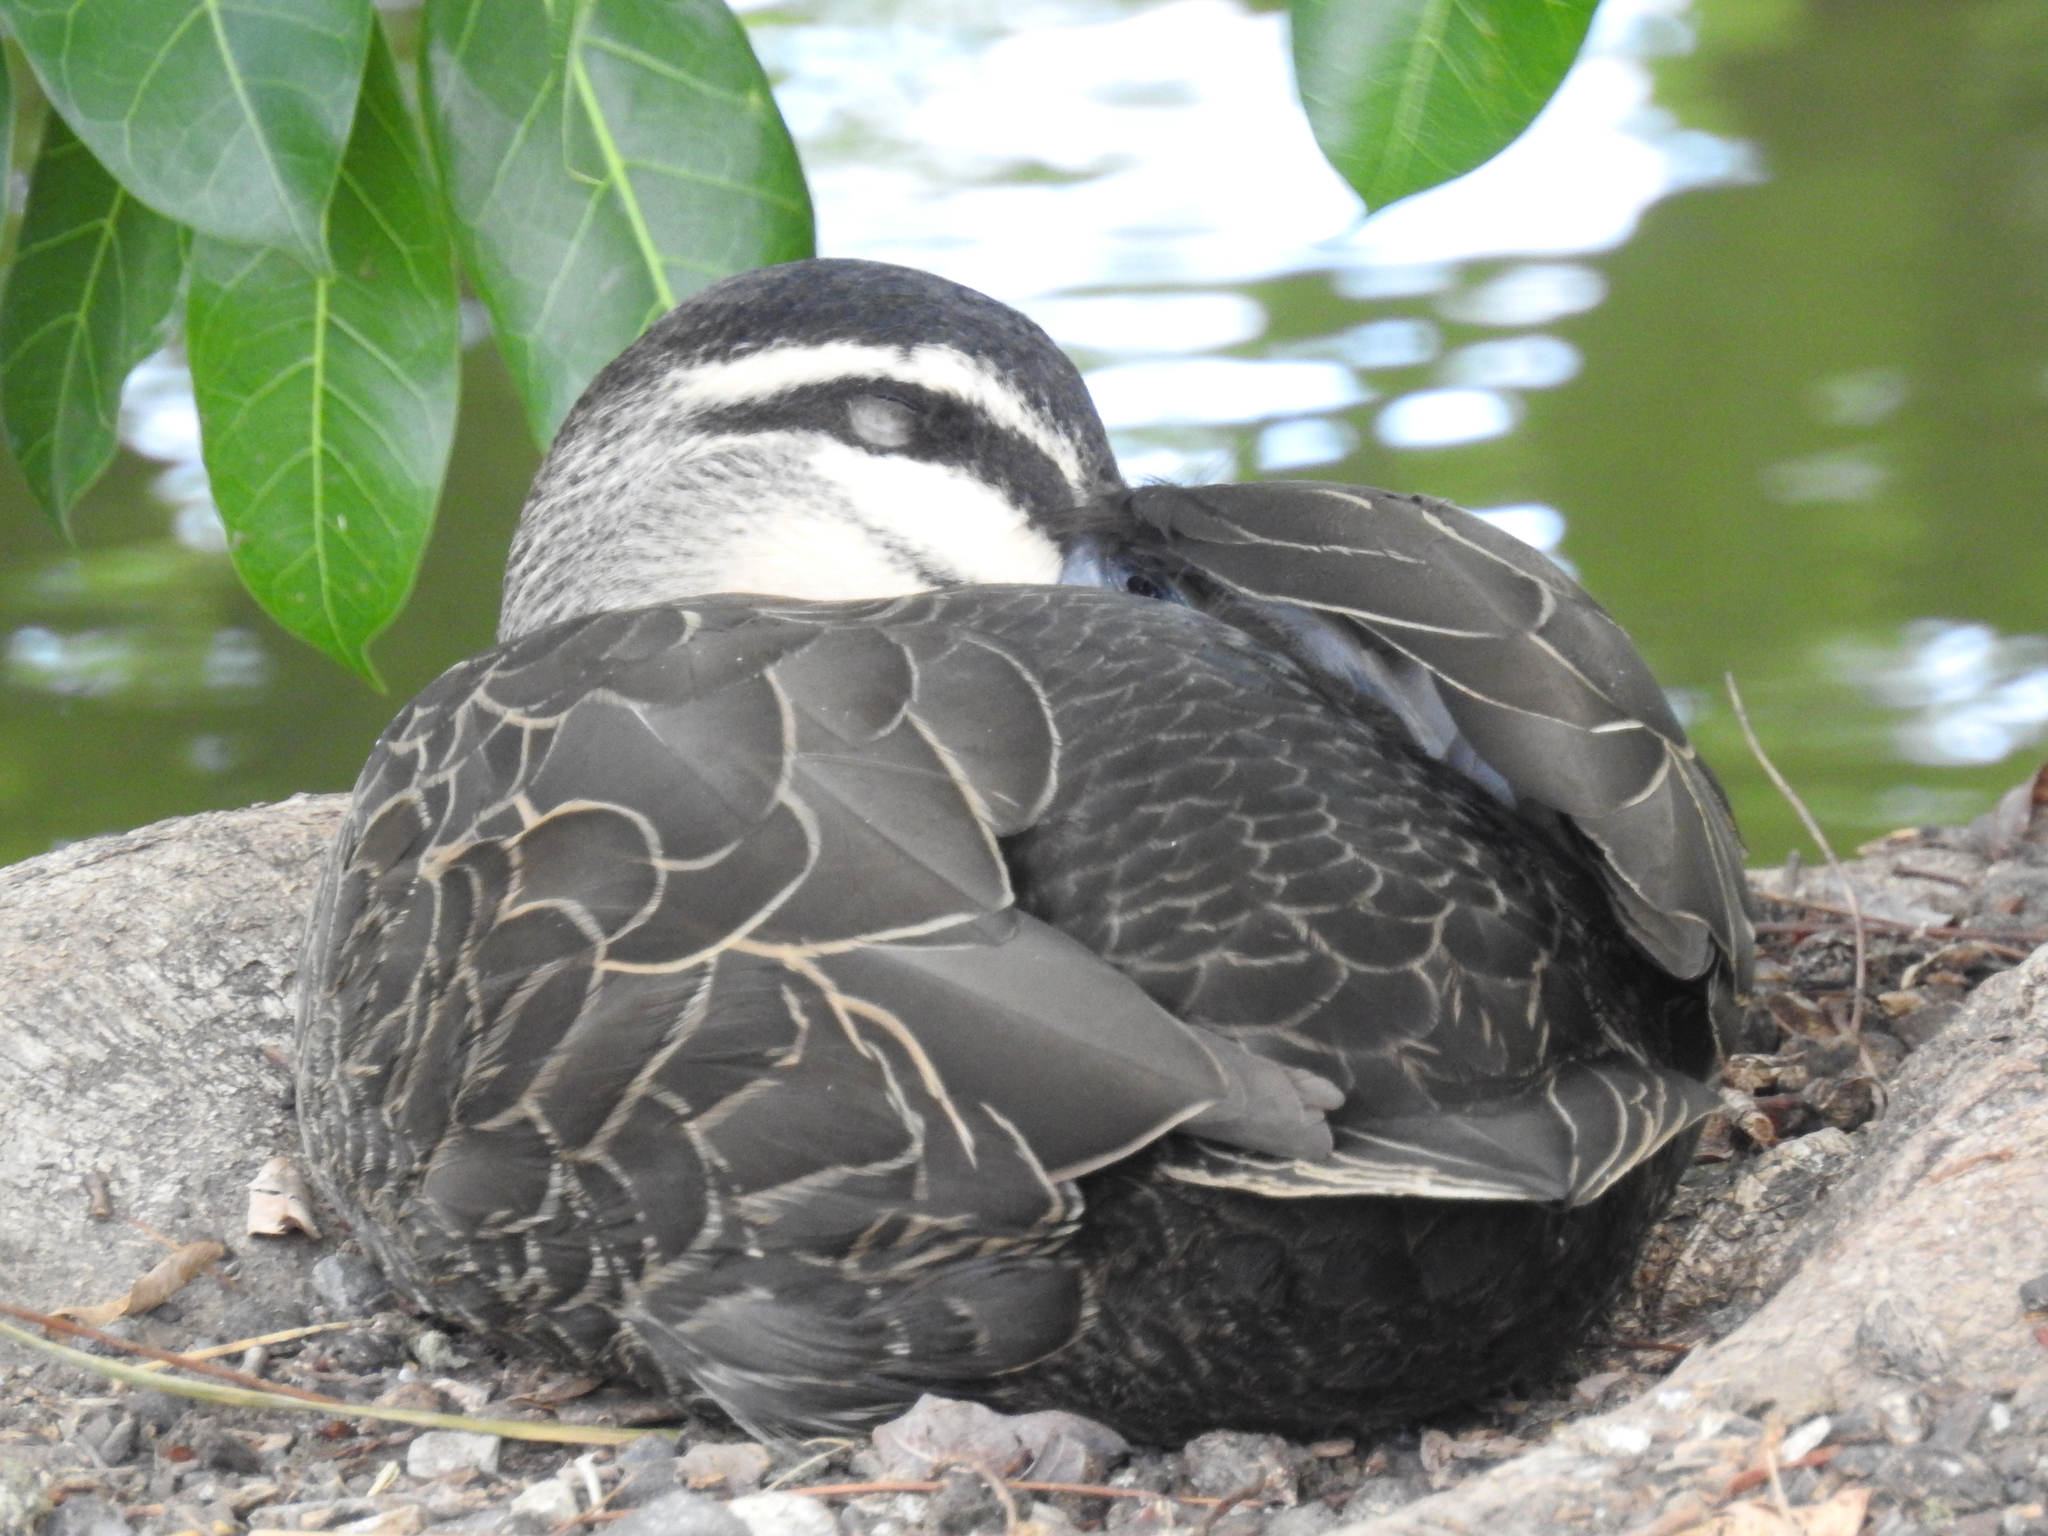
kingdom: Animalia
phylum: Chordata
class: Aves
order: Anseriformes
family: Anatidae
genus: Anas
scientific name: Anas superciliosa
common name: Pacific black duck
